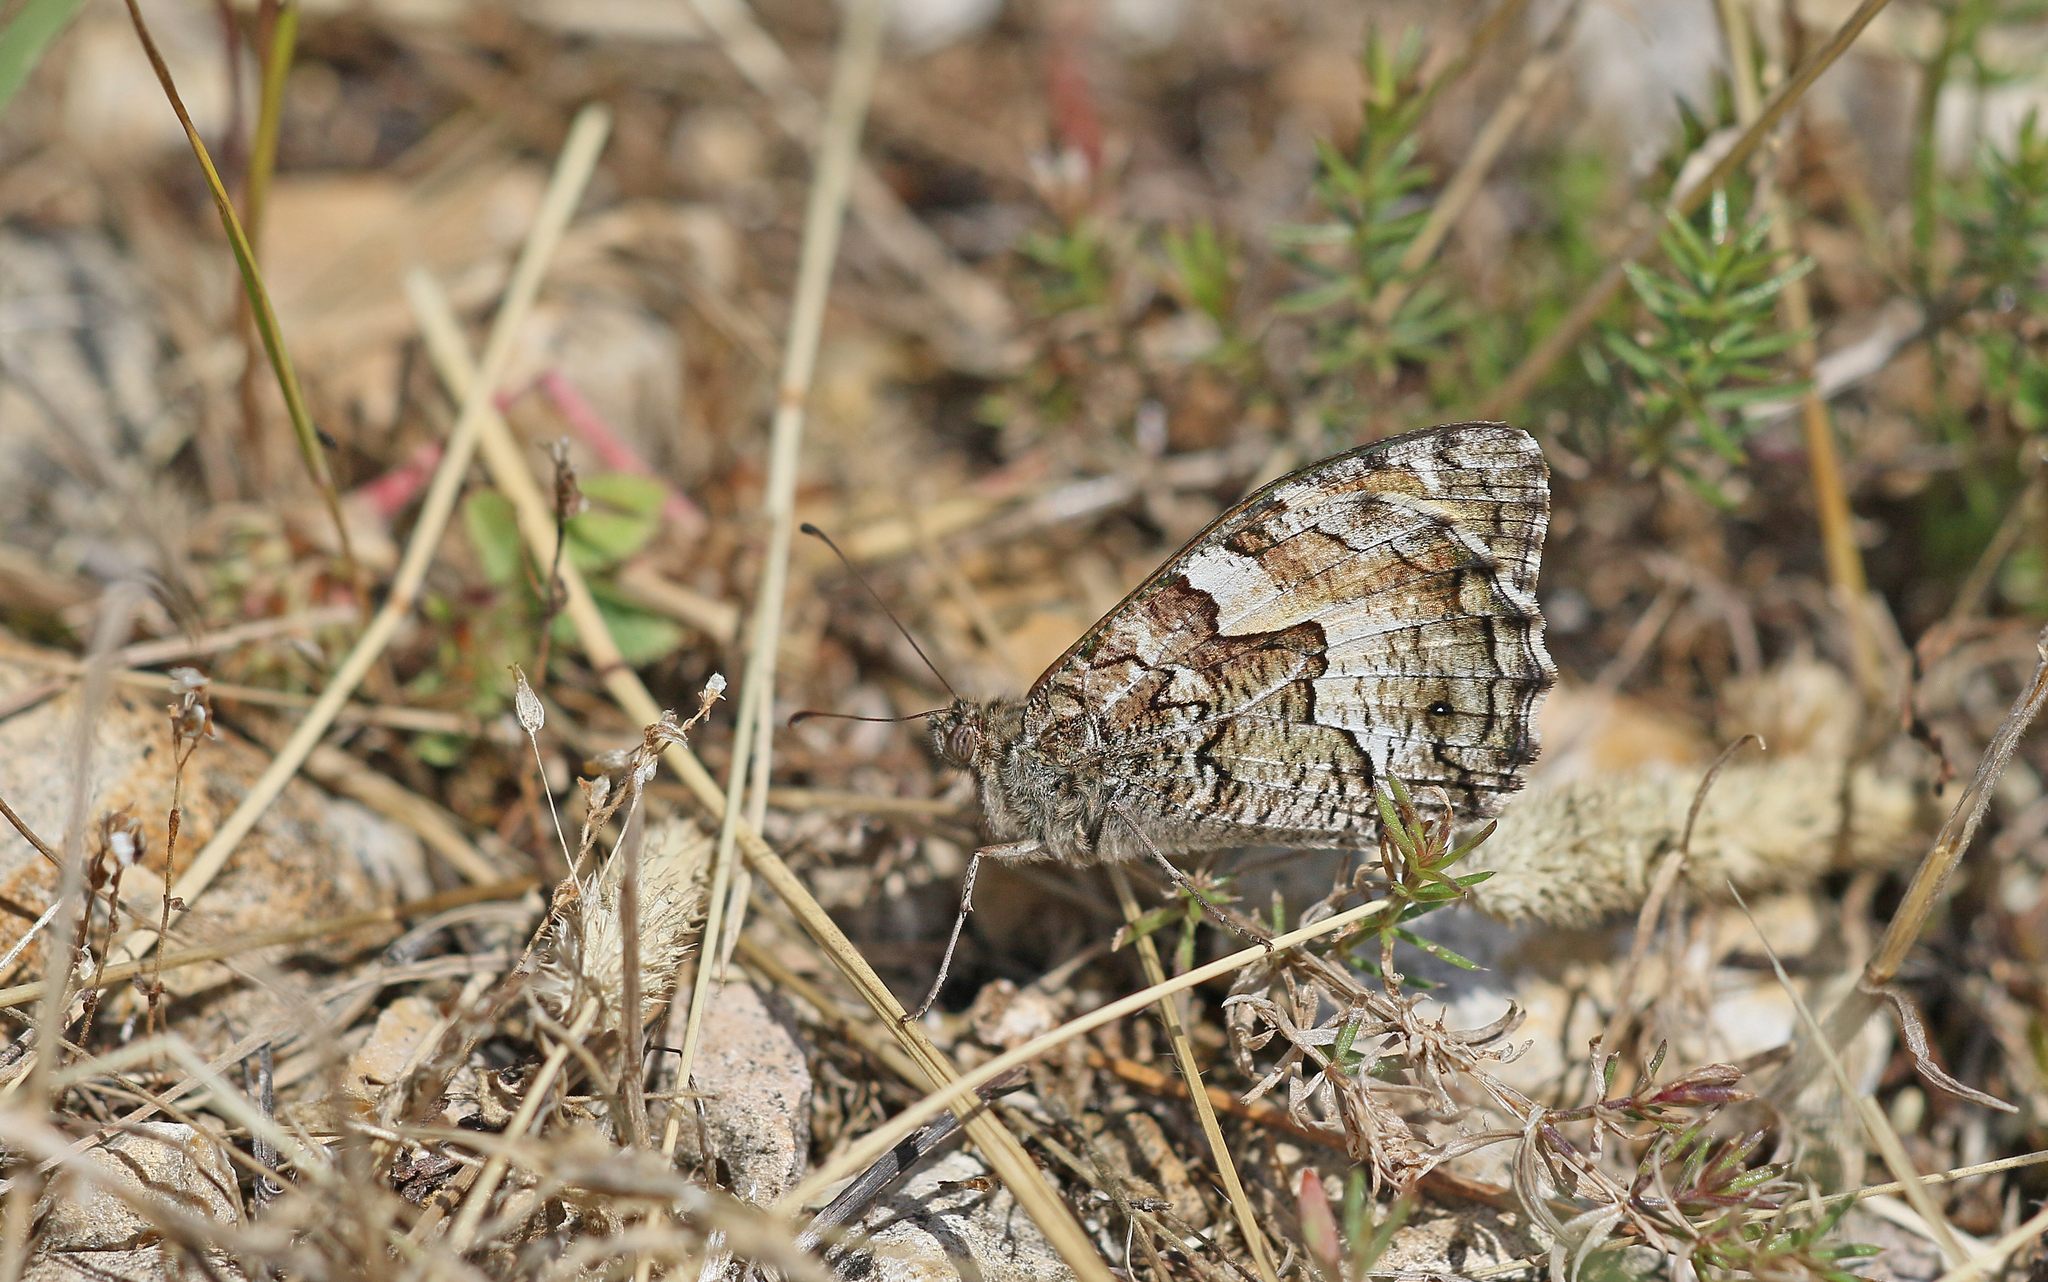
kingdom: Animalia
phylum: Arthropoda
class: Insecta
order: Lepidoptera
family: Nymphalidae
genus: Hipparchia
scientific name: Hipparchia semele
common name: Grayling
